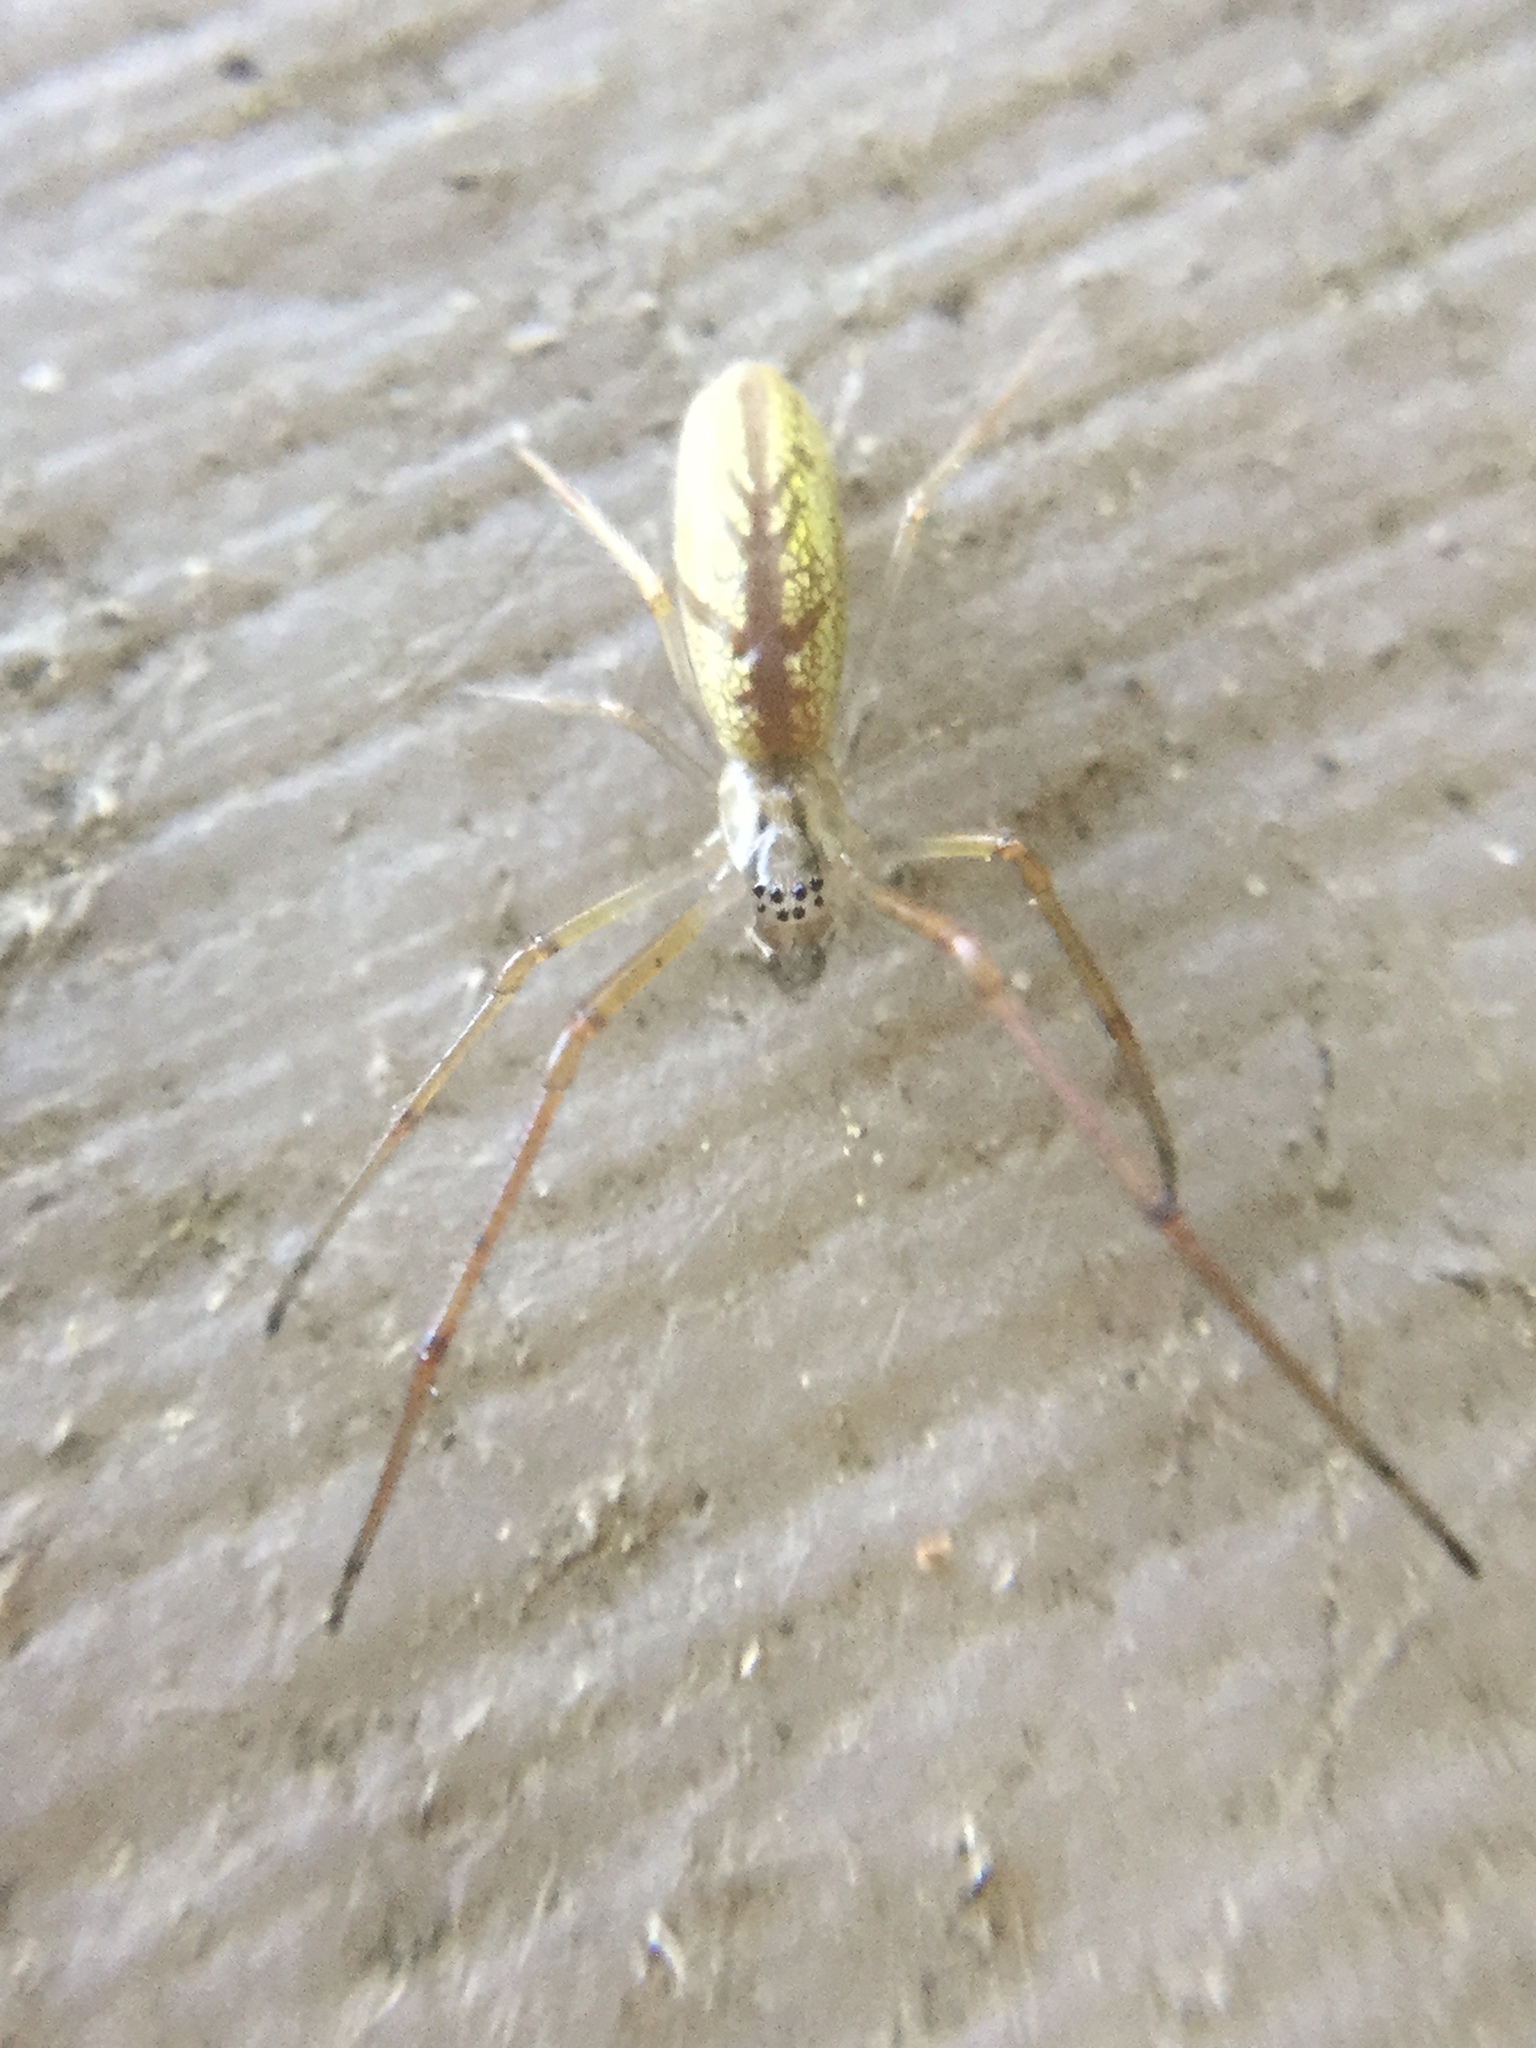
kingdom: Animalia
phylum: Arthropoda
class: Arachnida
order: Araneae
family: Tetragnathidae
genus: Tetragnatha
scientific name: Tetragnatha laboriosa
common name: Longjawed orb weavers
